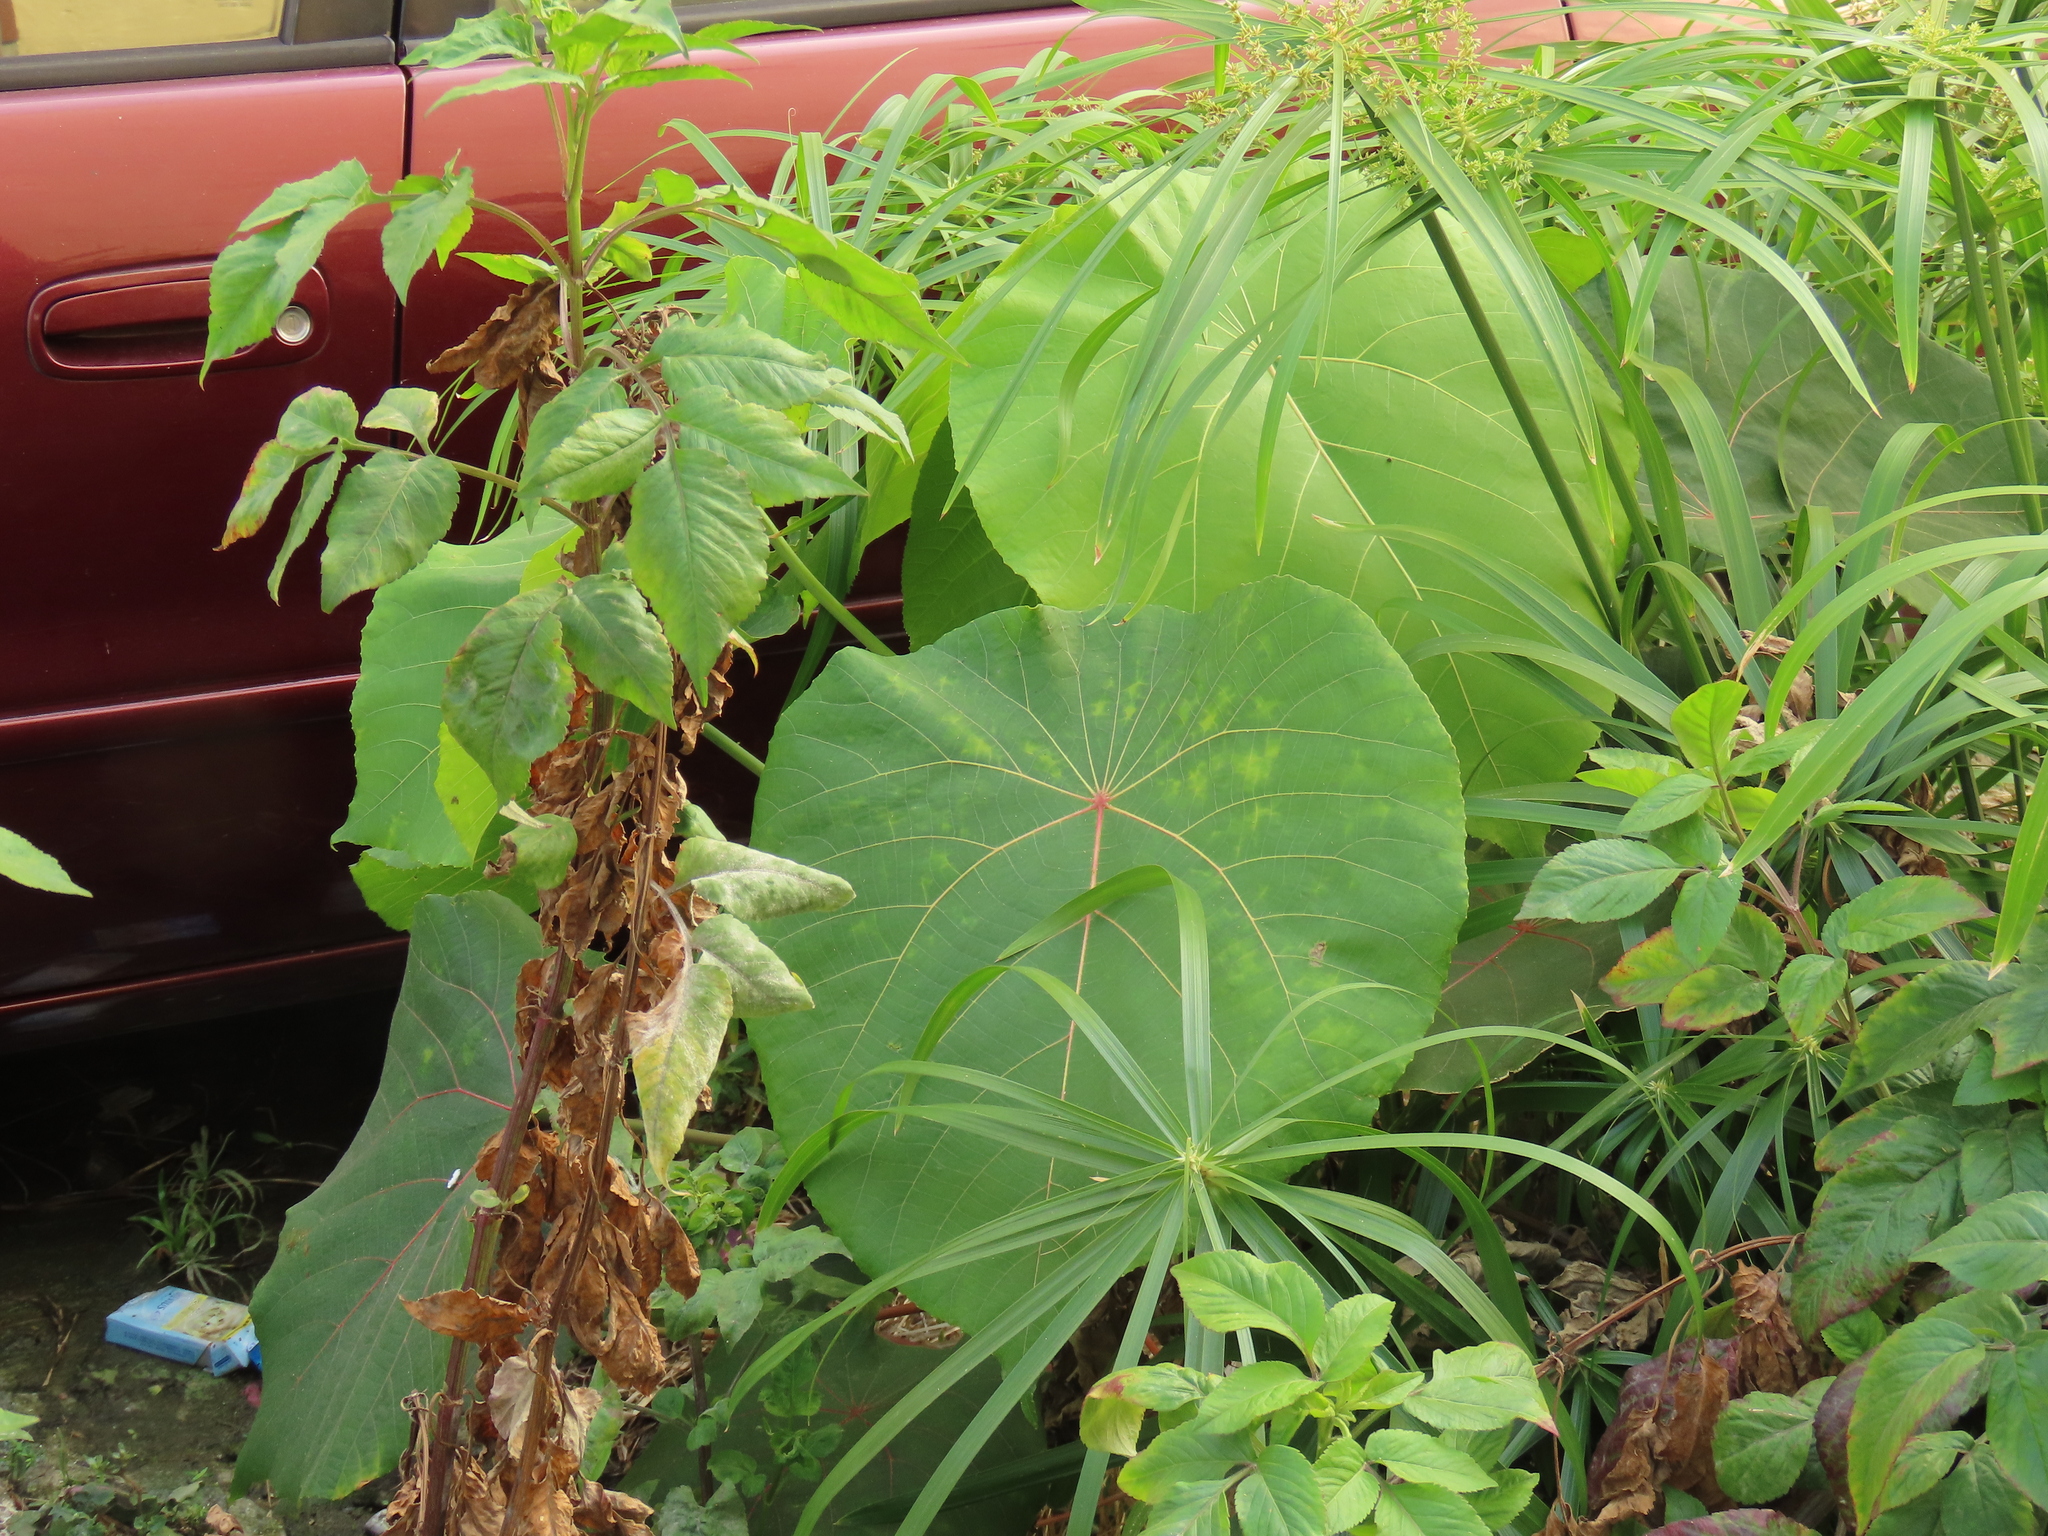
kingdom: Plantae
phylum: Tracheophyta
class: Magnoliopsida
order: Malpighiales
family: Euphorbiaceae
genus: Macaranga
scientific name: Macaranga tanarius
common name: Parasol leaf tree
